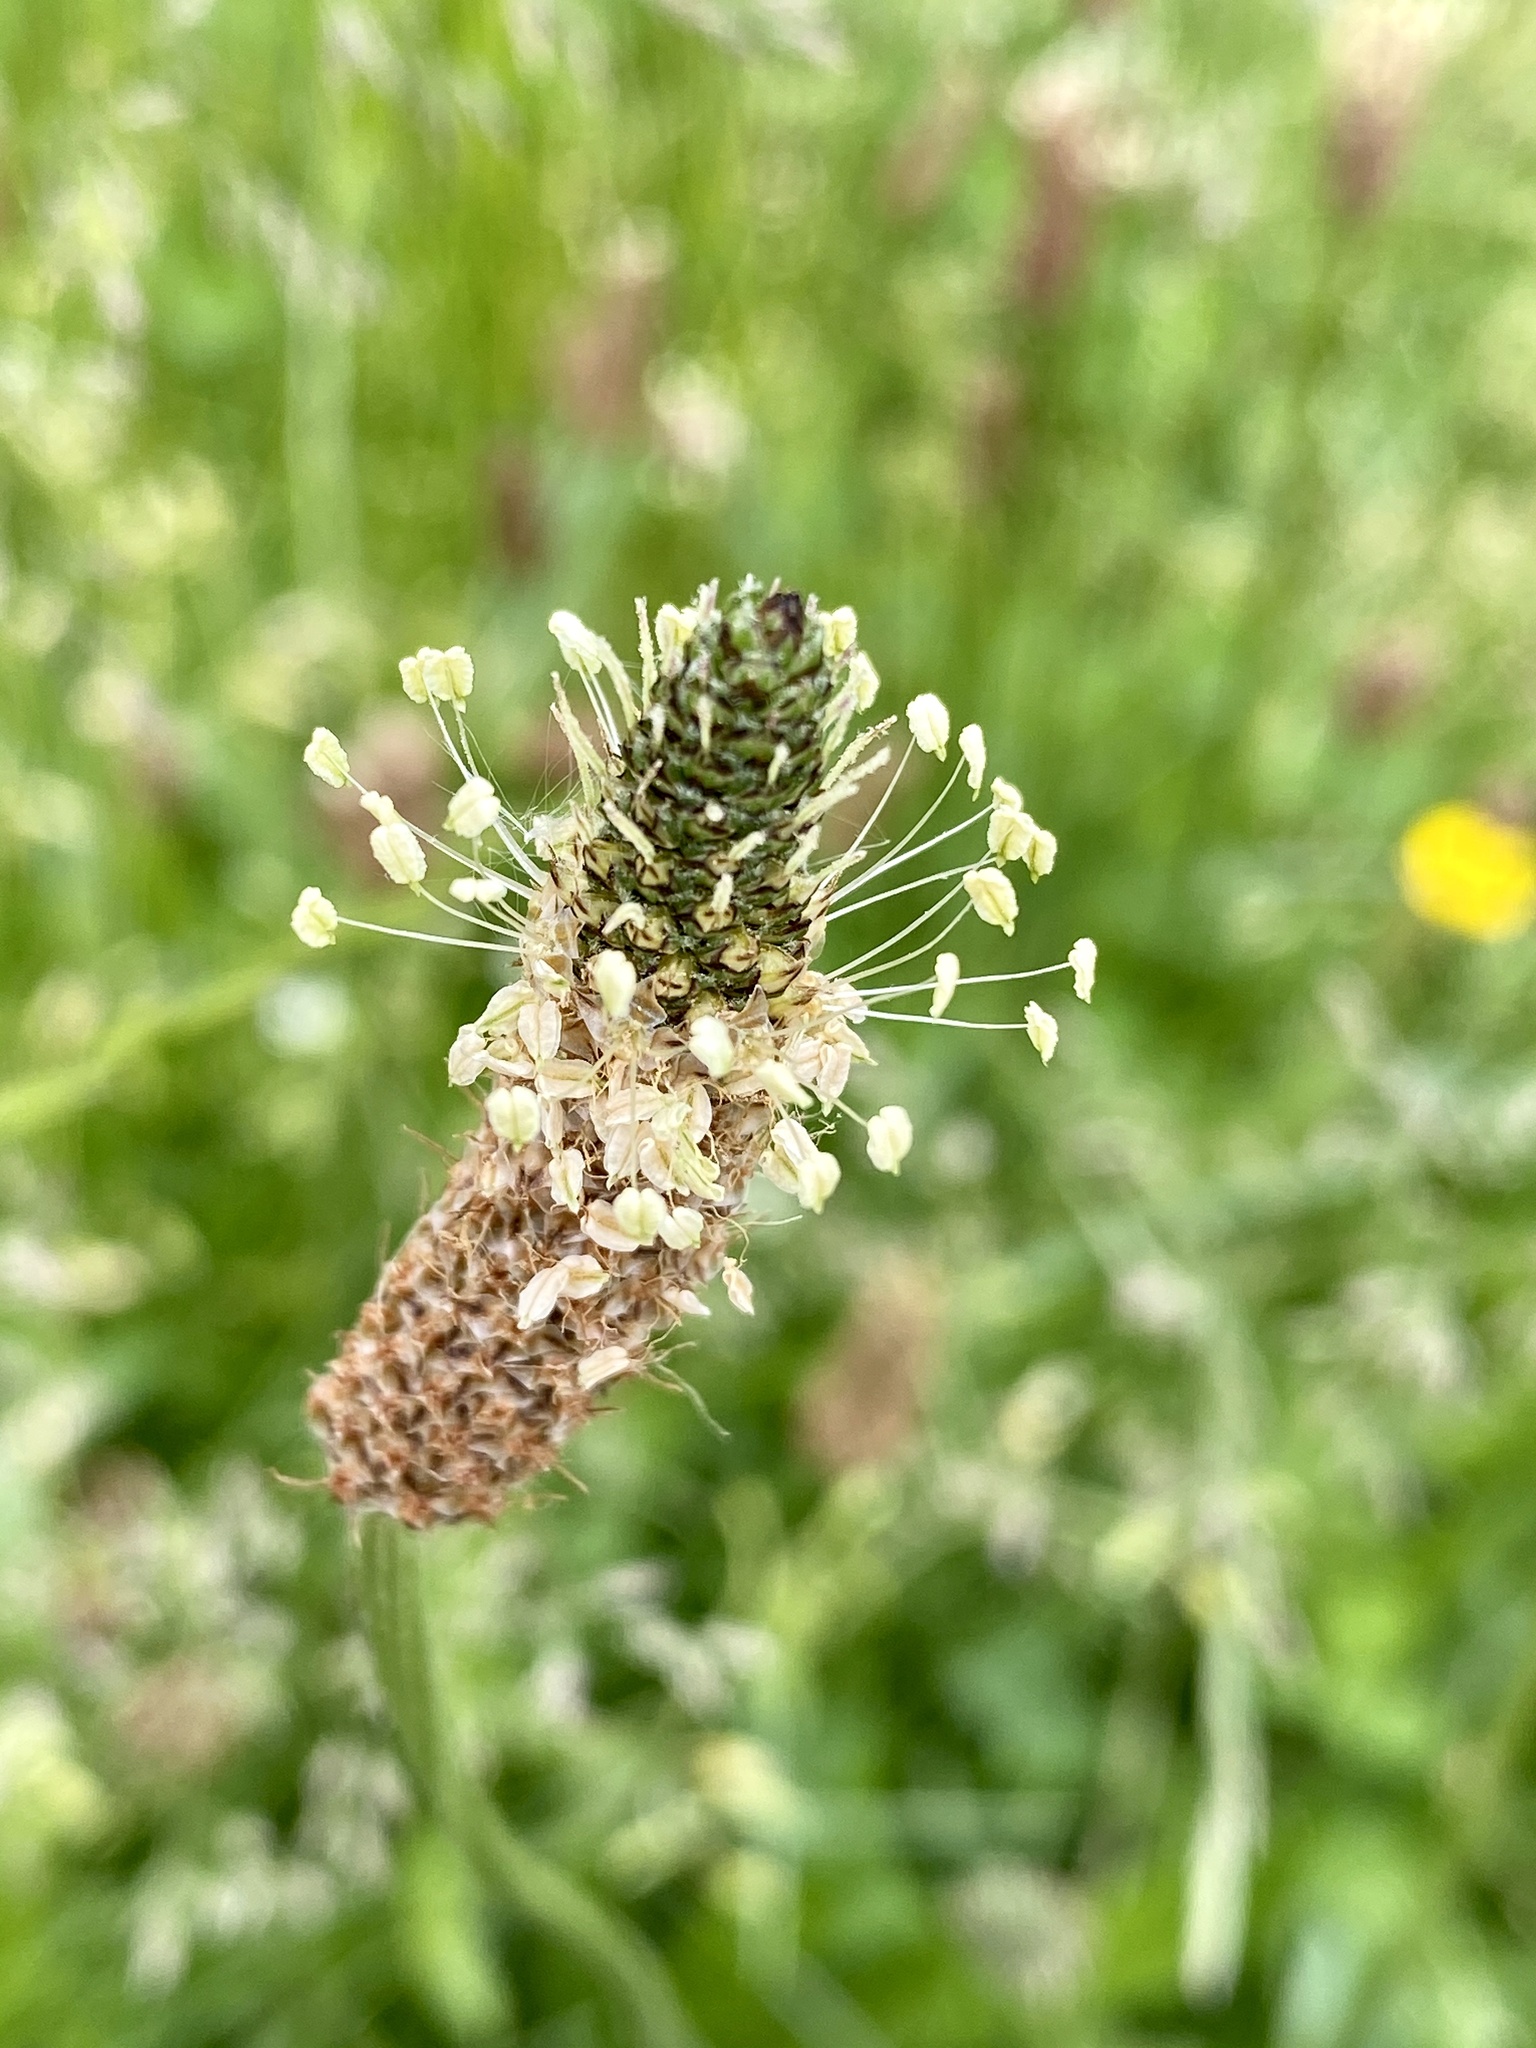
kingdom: Plantae
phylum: Tracheophyta
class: Magnoliopsida
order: Lamiales
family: Plantaginaceae
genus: Plantago
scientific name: Plantago lanceolata
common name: Ribwort plantain
